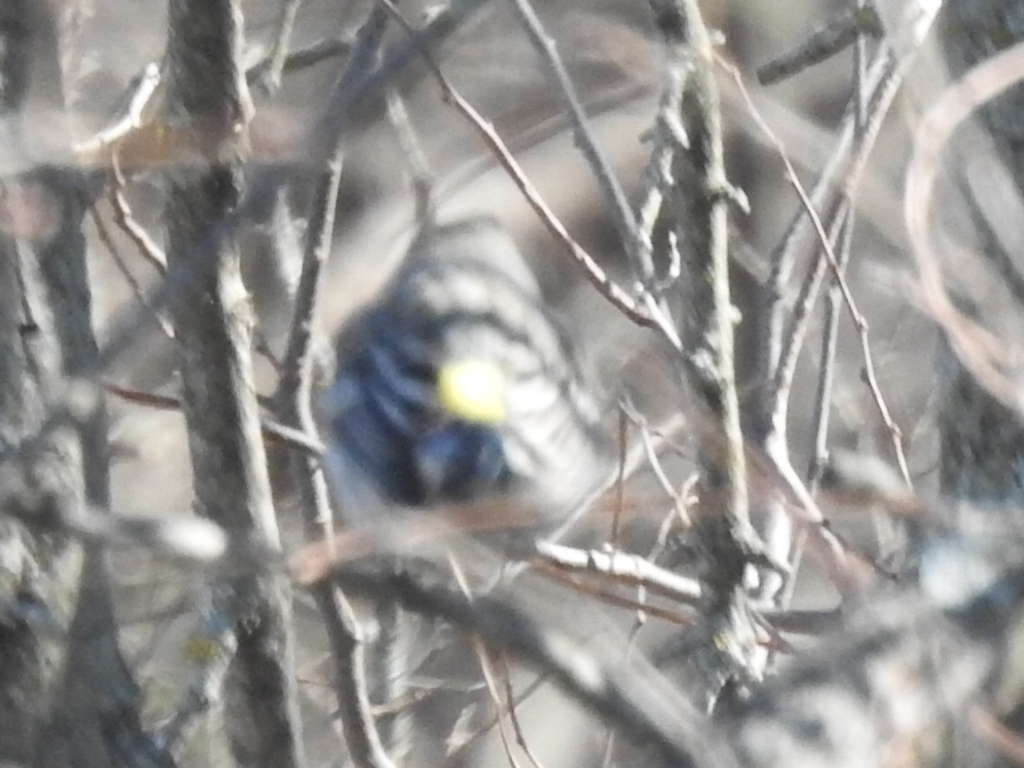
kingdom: Animalia
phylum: Chordata
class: Aves
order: Passeriformes
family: Parulidae
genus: Setophaga
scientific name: Setophaga coronata
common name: Myrtle warbler
